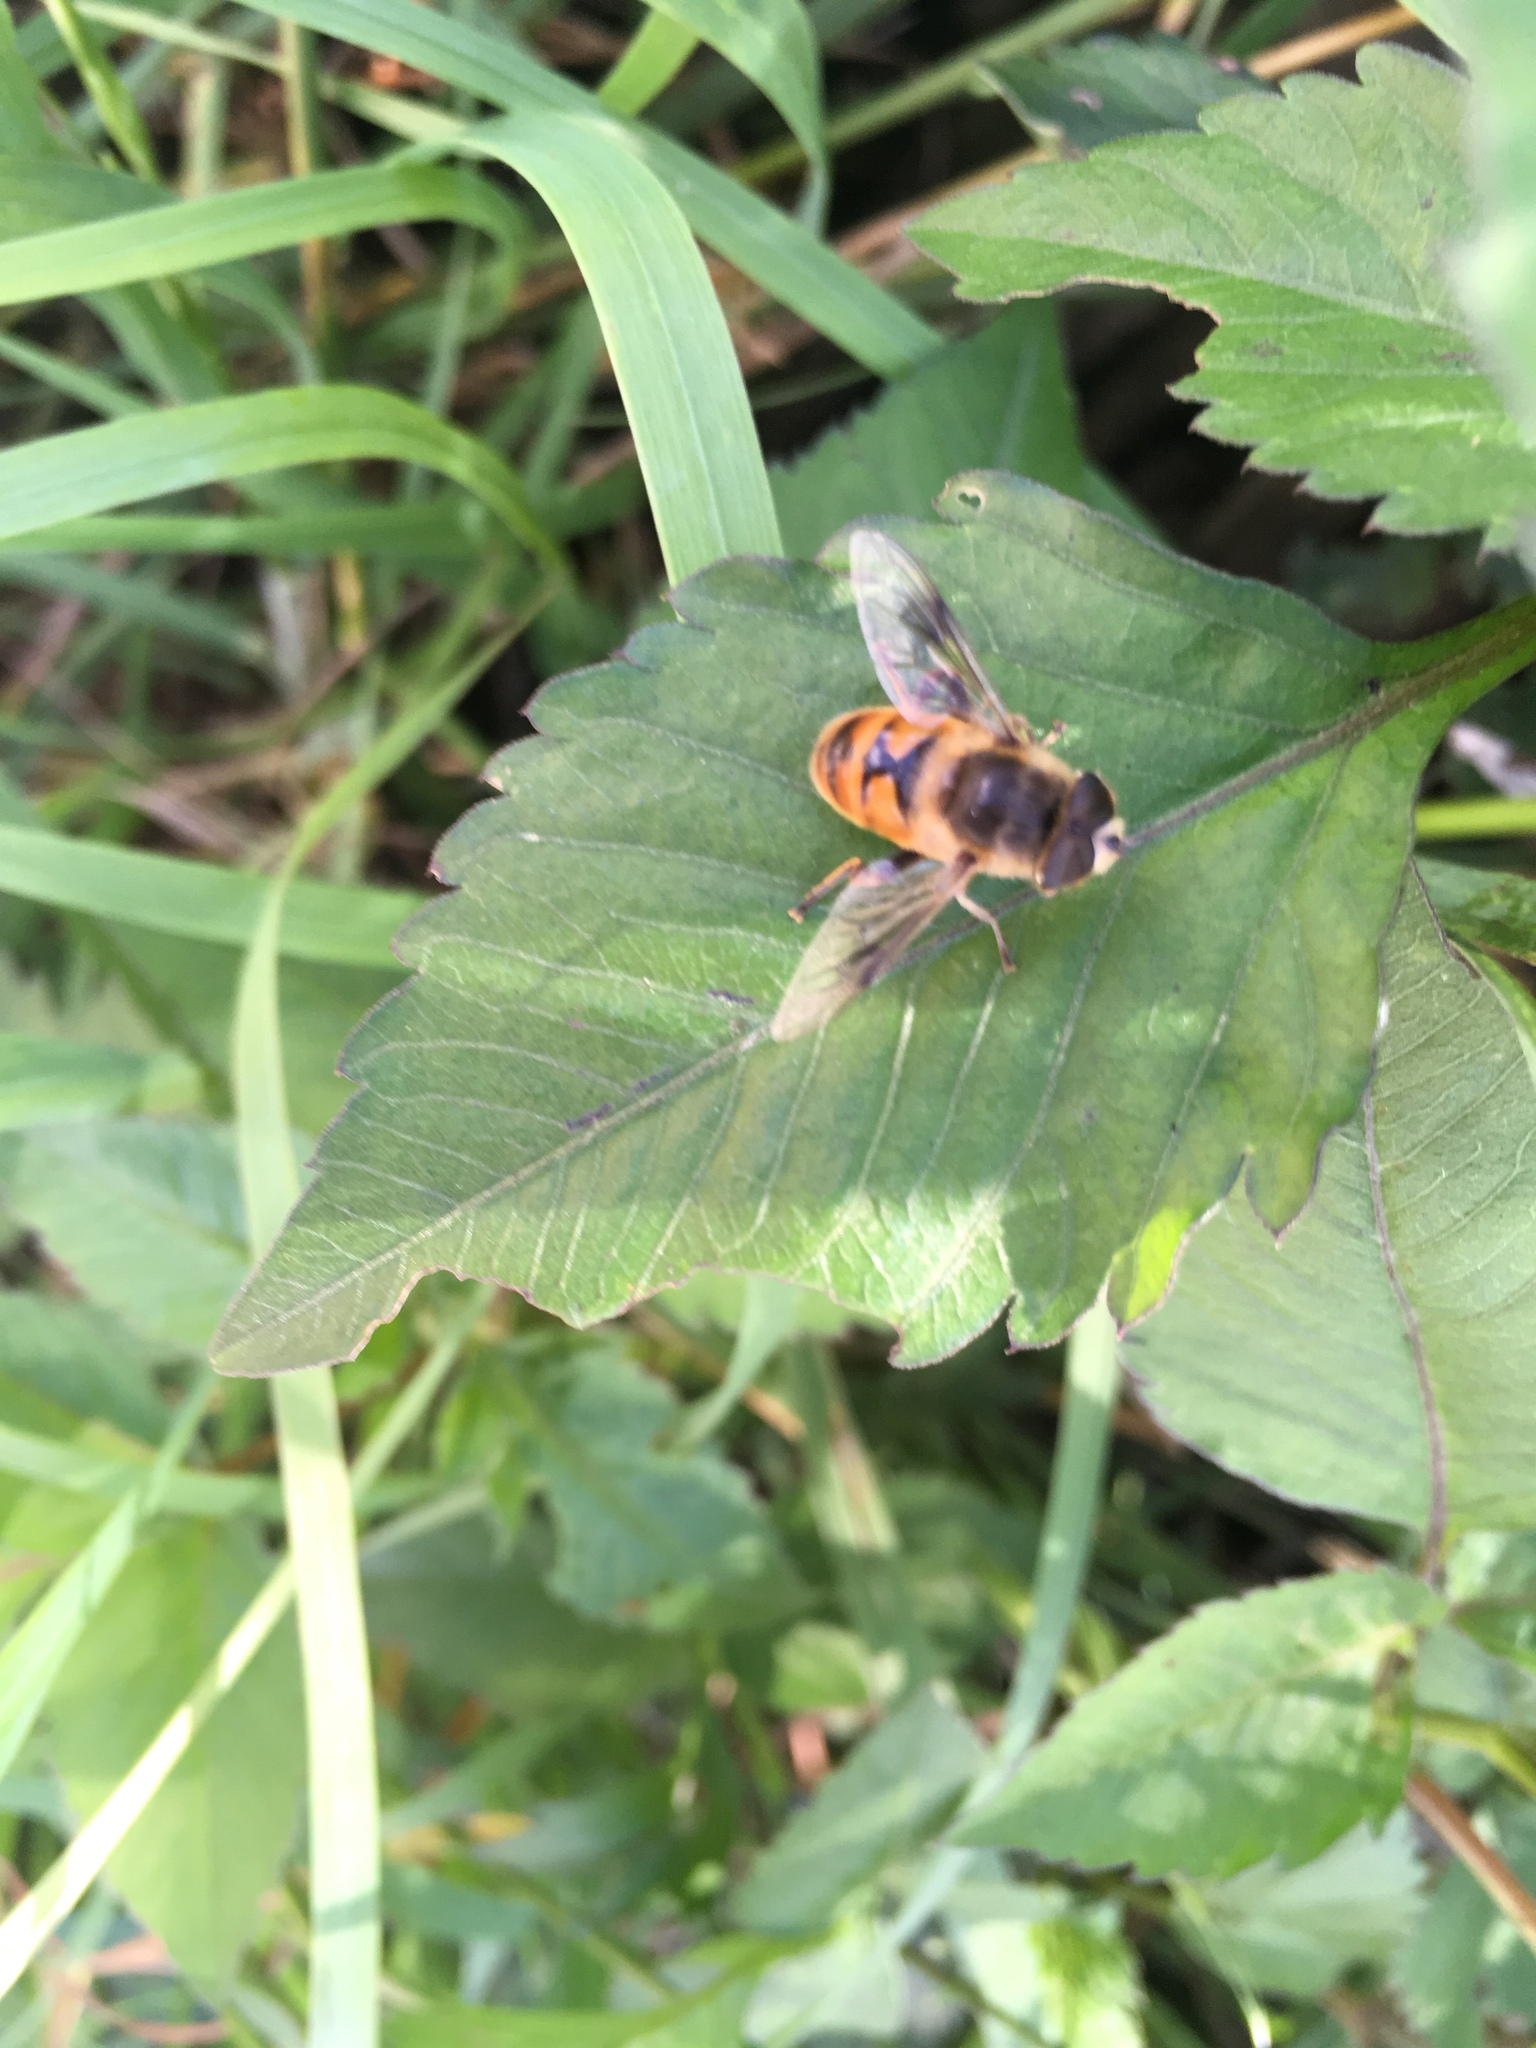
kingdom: Animalia
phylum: Arthropoda
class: Insecta
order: Diptera
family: Syrphidae
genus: Eristalis
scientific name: Eristalis tenax
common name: Drone fly
